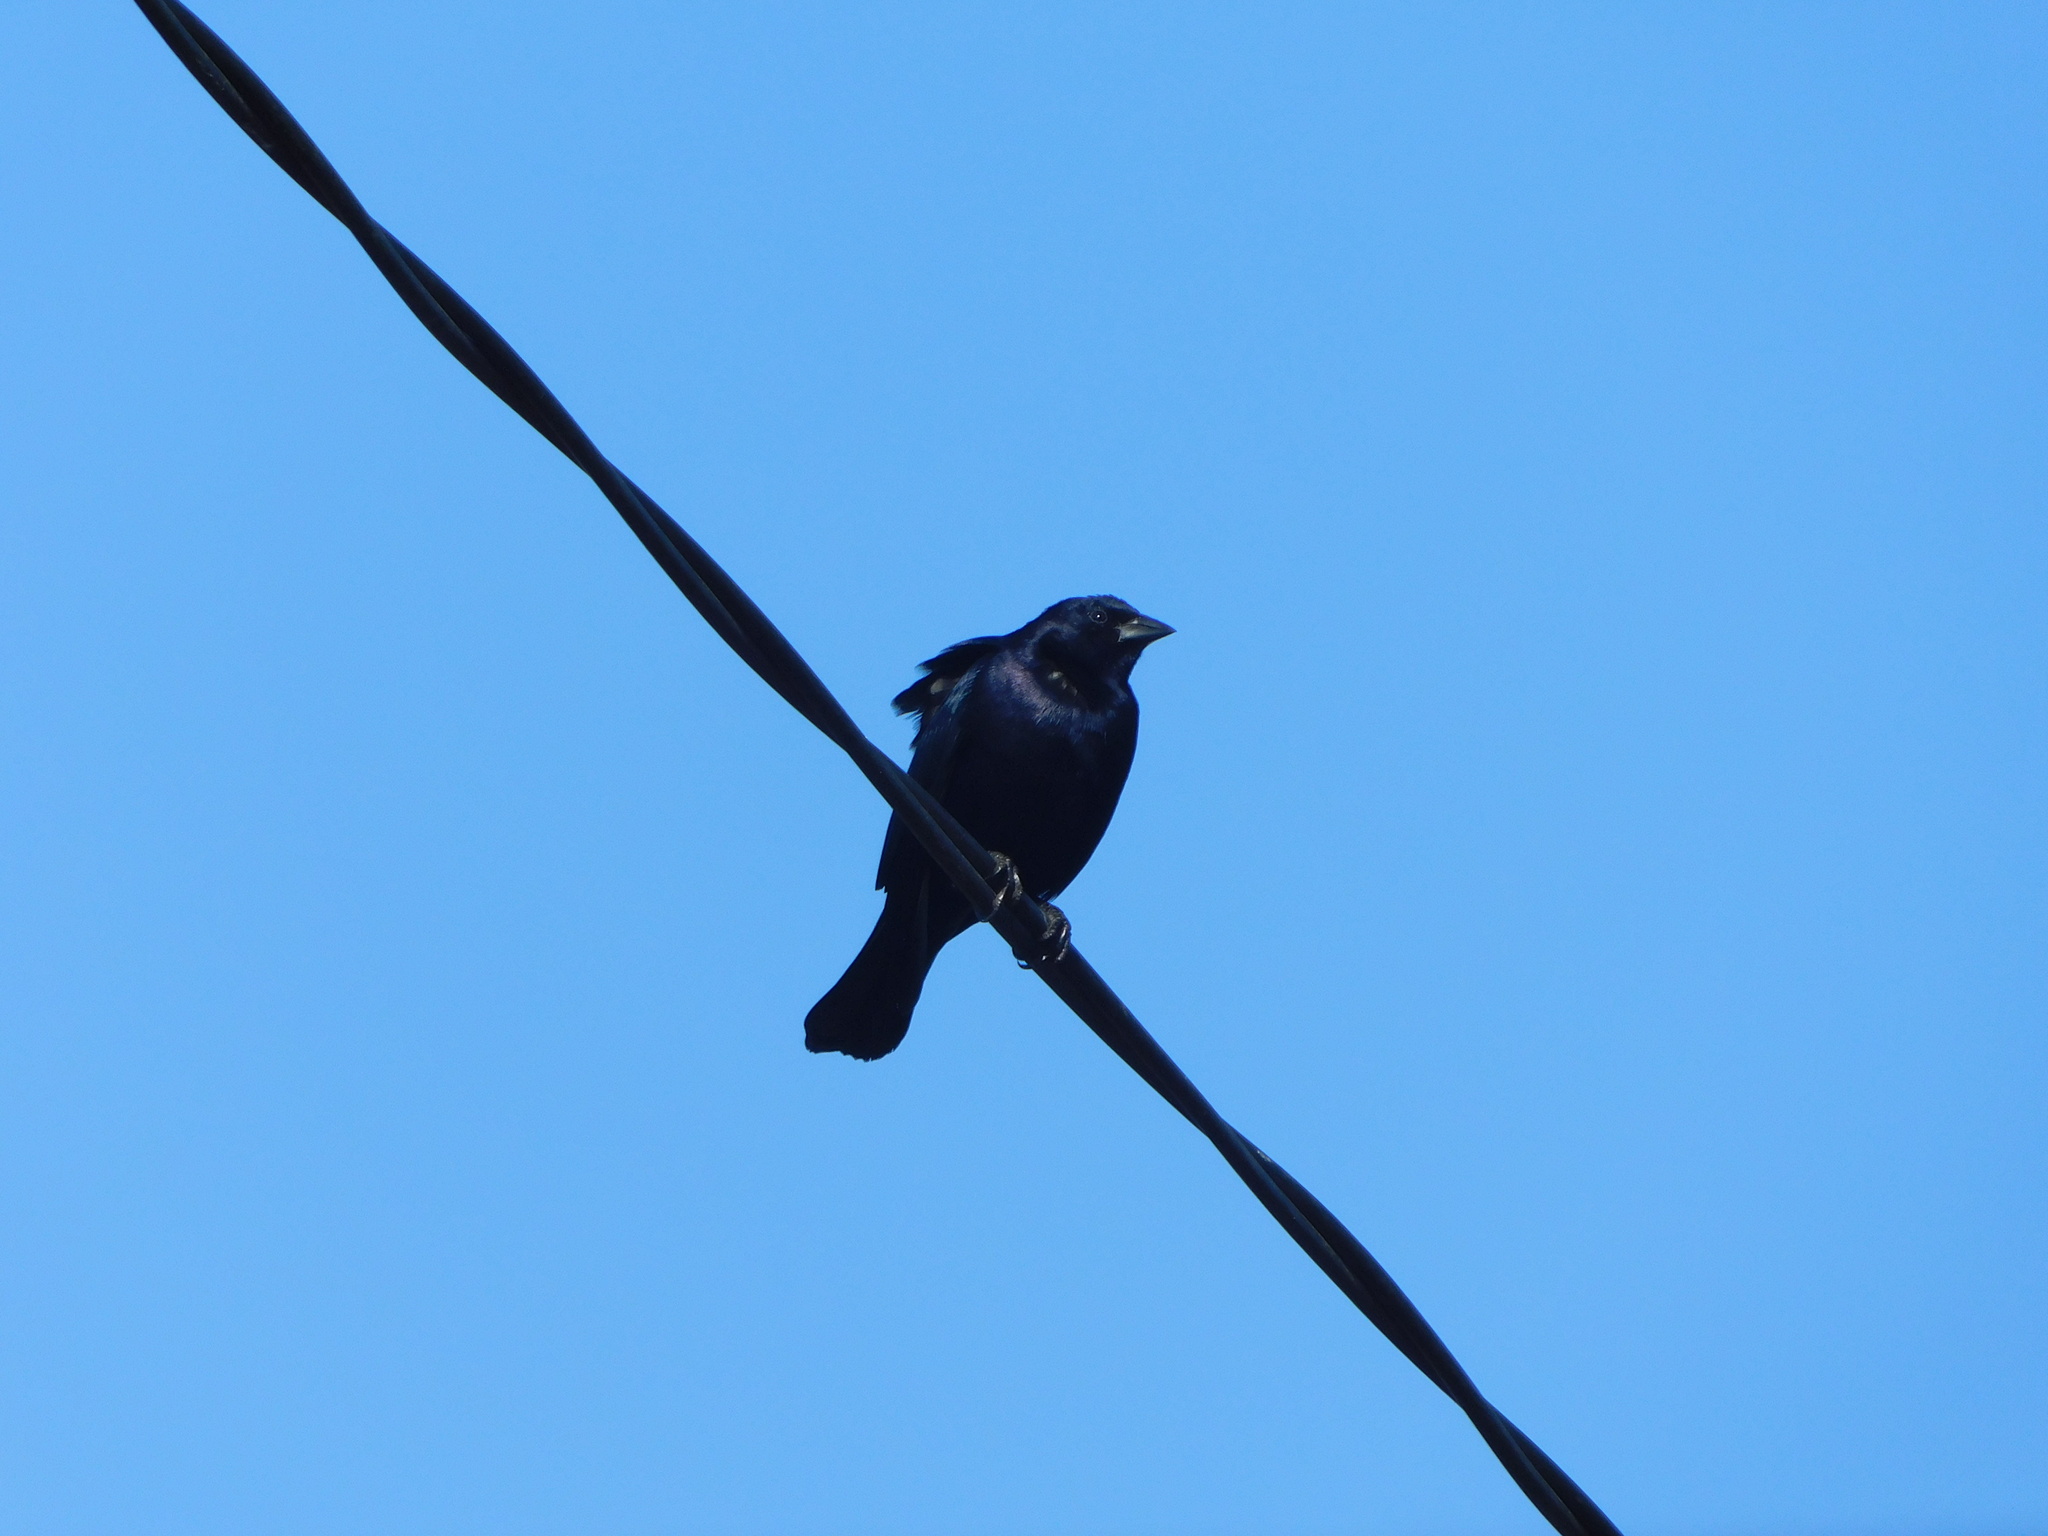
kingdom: Animalia
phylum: Chordata
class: Aves
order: Passeriformes
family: Icteridae
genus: Molothrus
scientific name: Molothrus bonariensis
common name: Shiny cowbird
